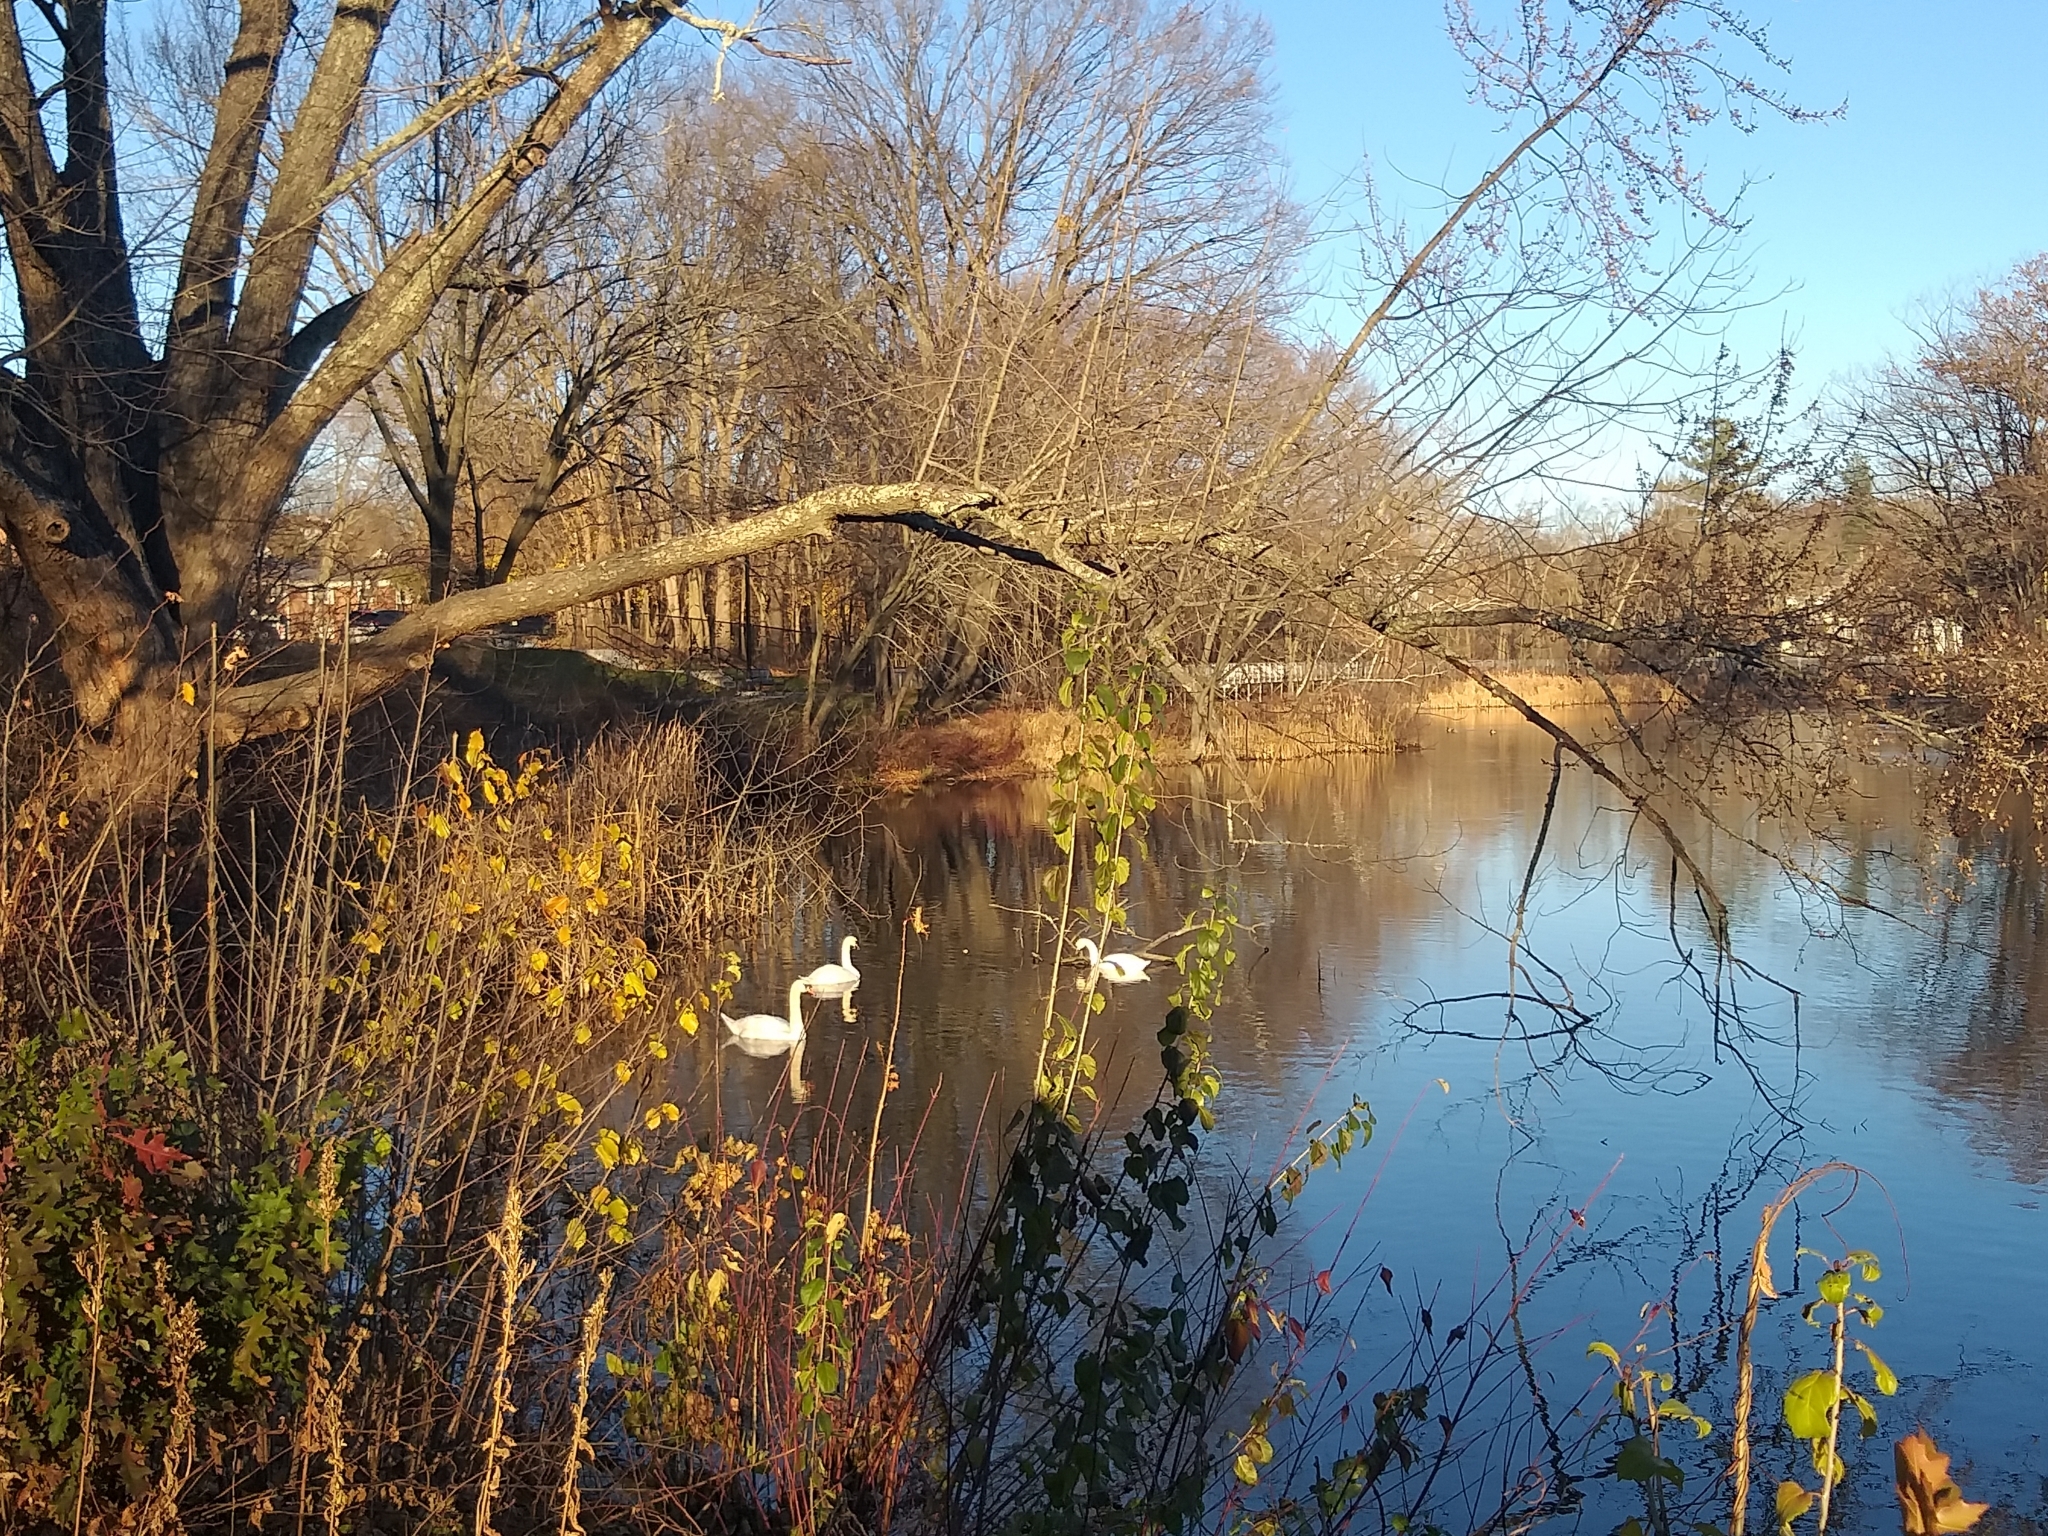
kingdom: Animalia
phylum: Chordata
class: Aves
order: Anseriformes
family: Anatidae
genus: Cygnus
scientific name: Cygnus olor
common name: Mute swan
